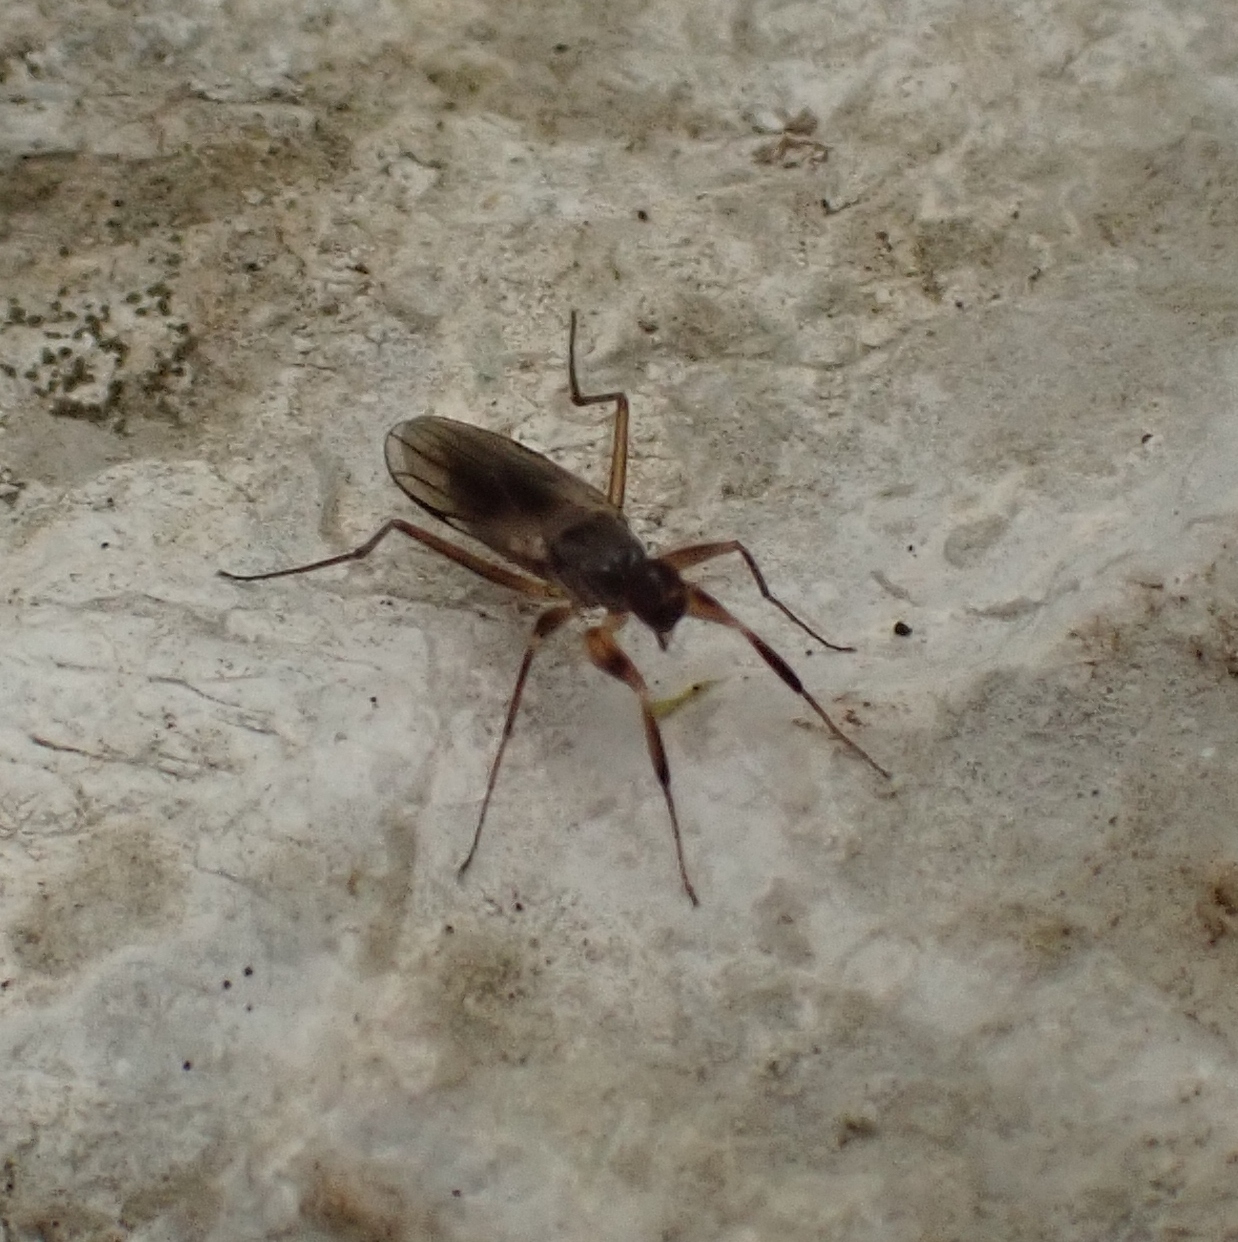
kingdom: Animalia
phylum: Arthropoda
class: Insecta
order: Diptera
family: Hybotidae
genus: Tachypeza
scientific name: Tachypeza nubila
